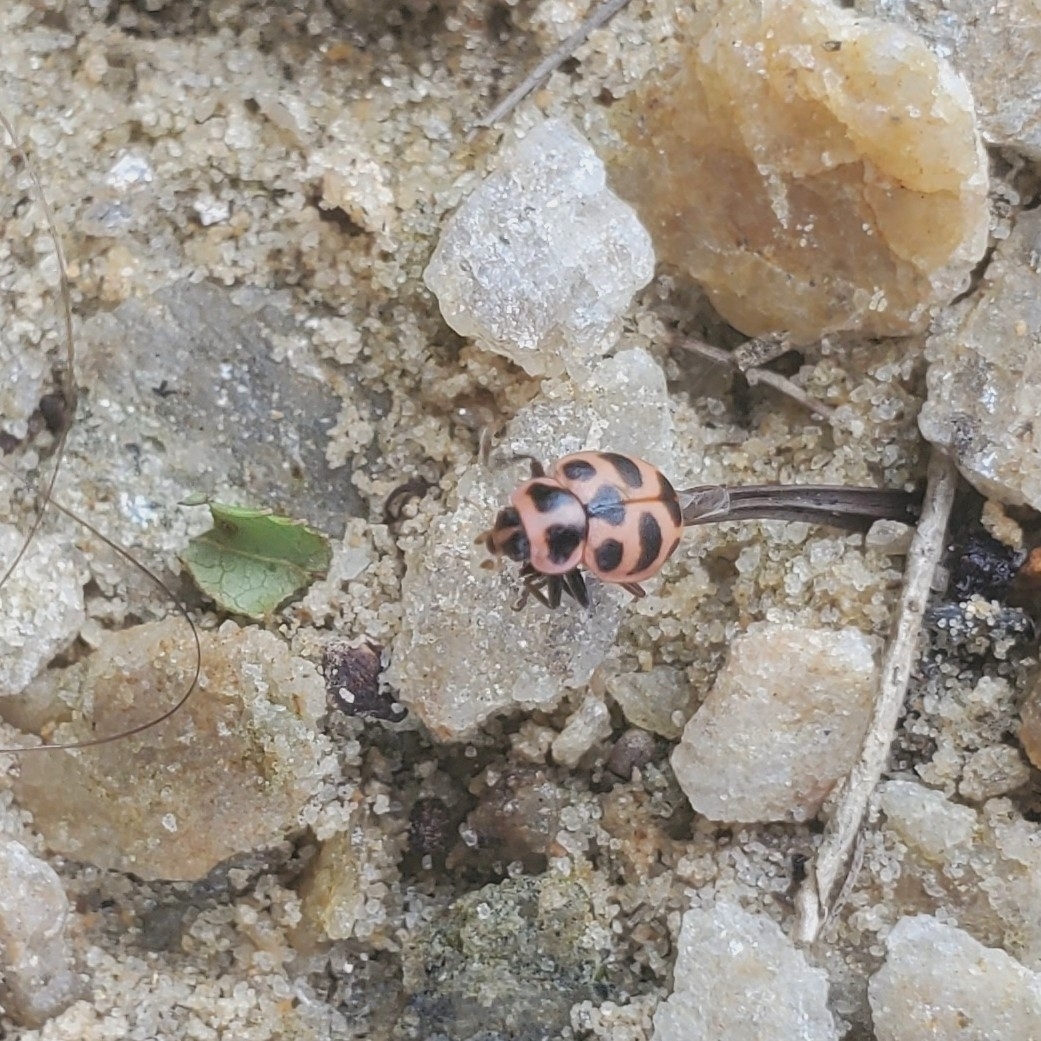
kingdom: Animalia
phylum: Arthropoda
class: Insecta
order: Coleoptera
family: Coccinellidae
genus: Coleomegilla
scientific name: Coleomegilla maculata
